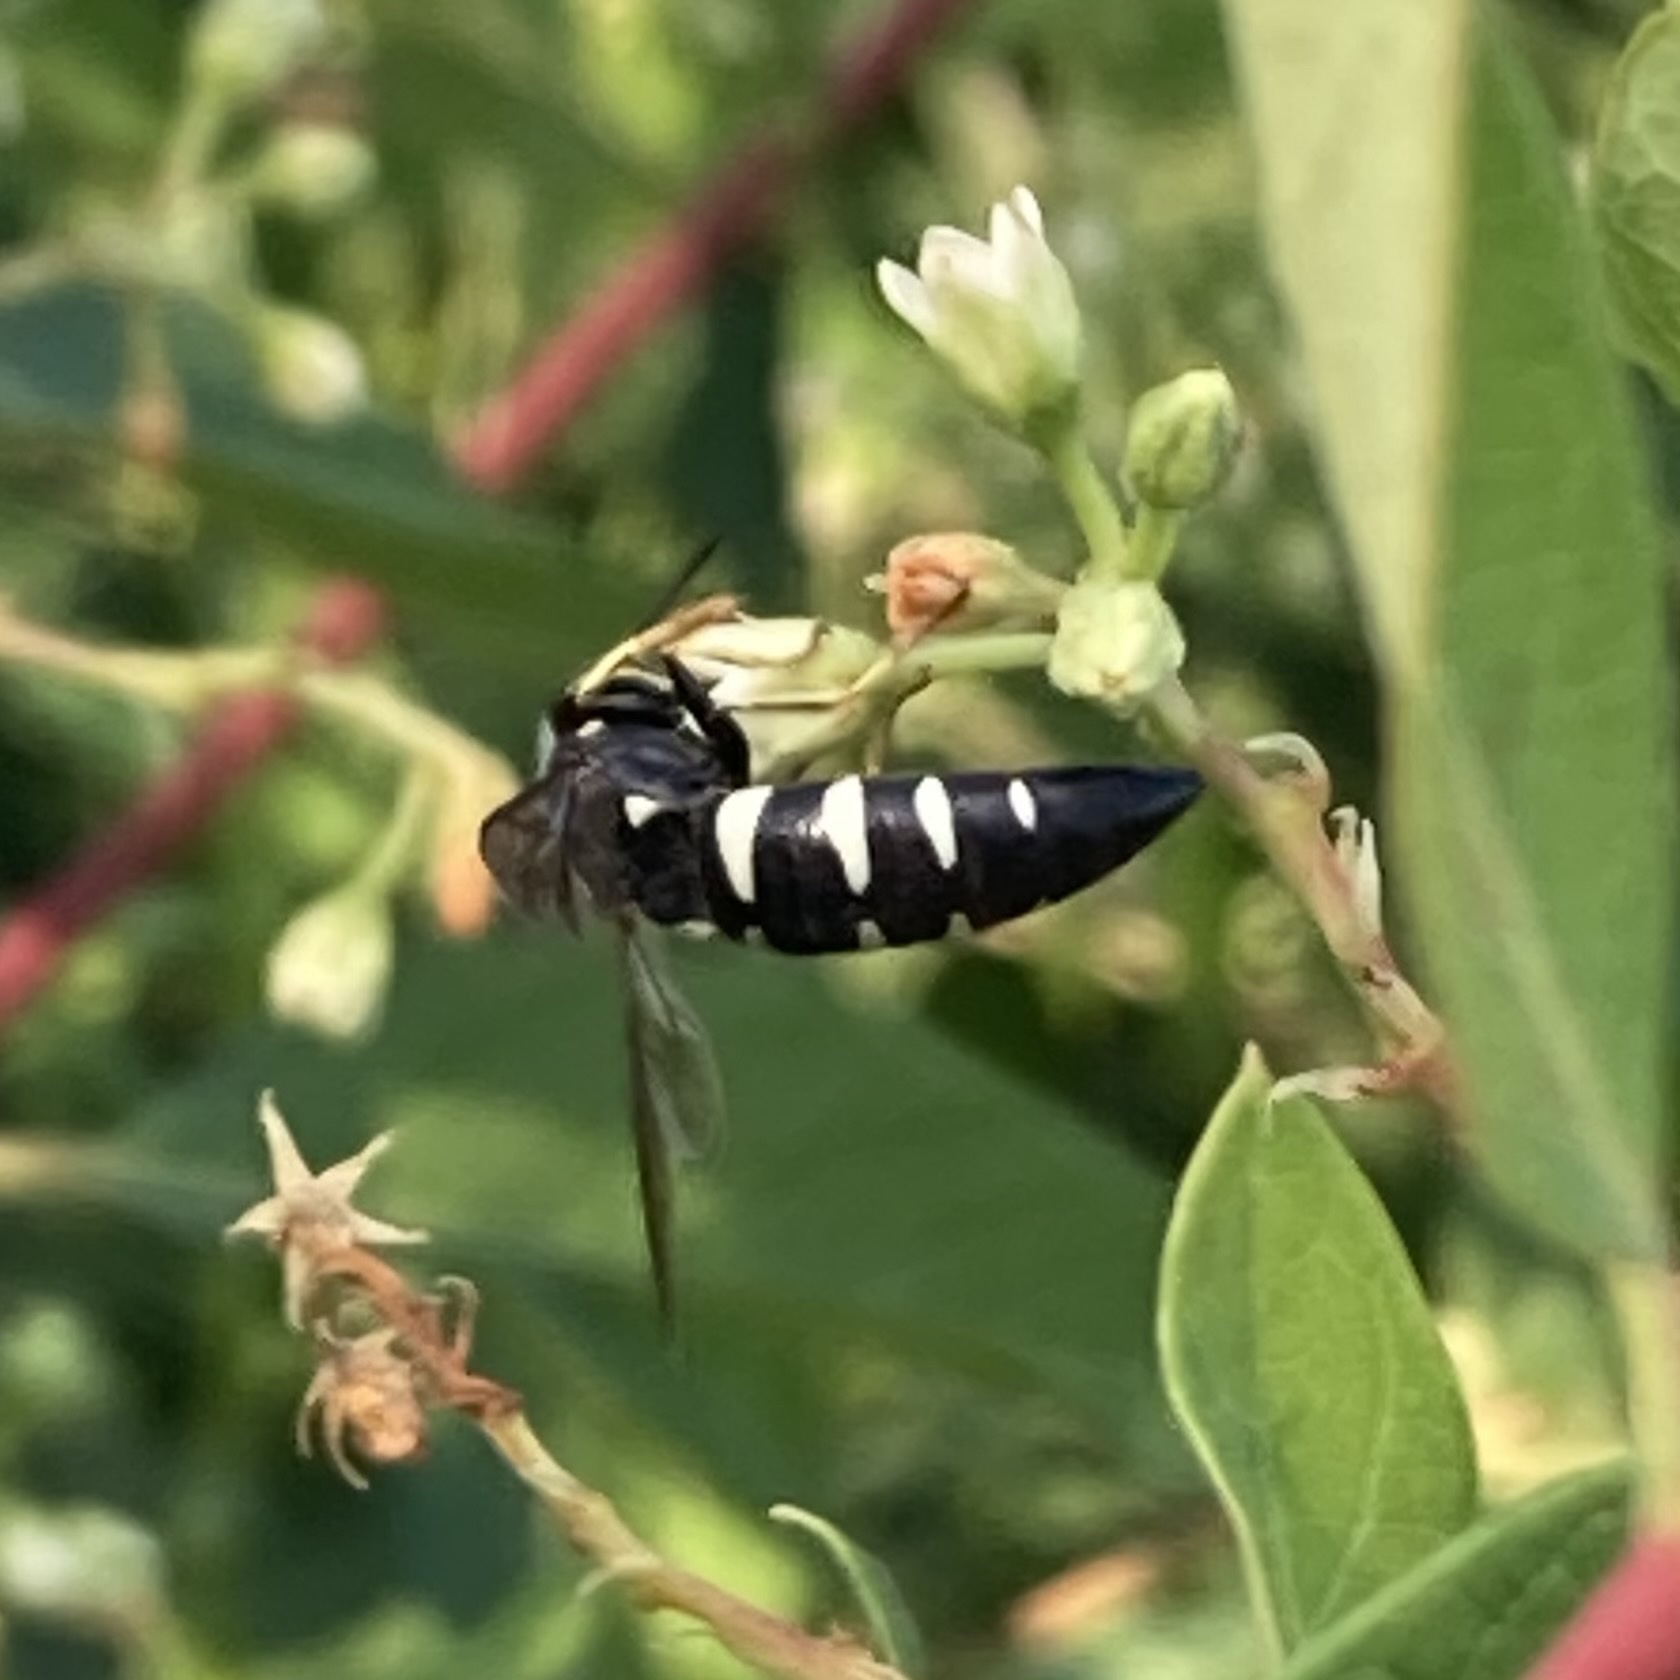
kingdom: Animalia
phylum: Arthropoda
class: Insecta
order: Hymenoptera
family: Crabronidae
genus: Bicyrtes
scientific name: Bicyrtes quadrifasciatus
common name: Four-banded stink bug hunter wasp
